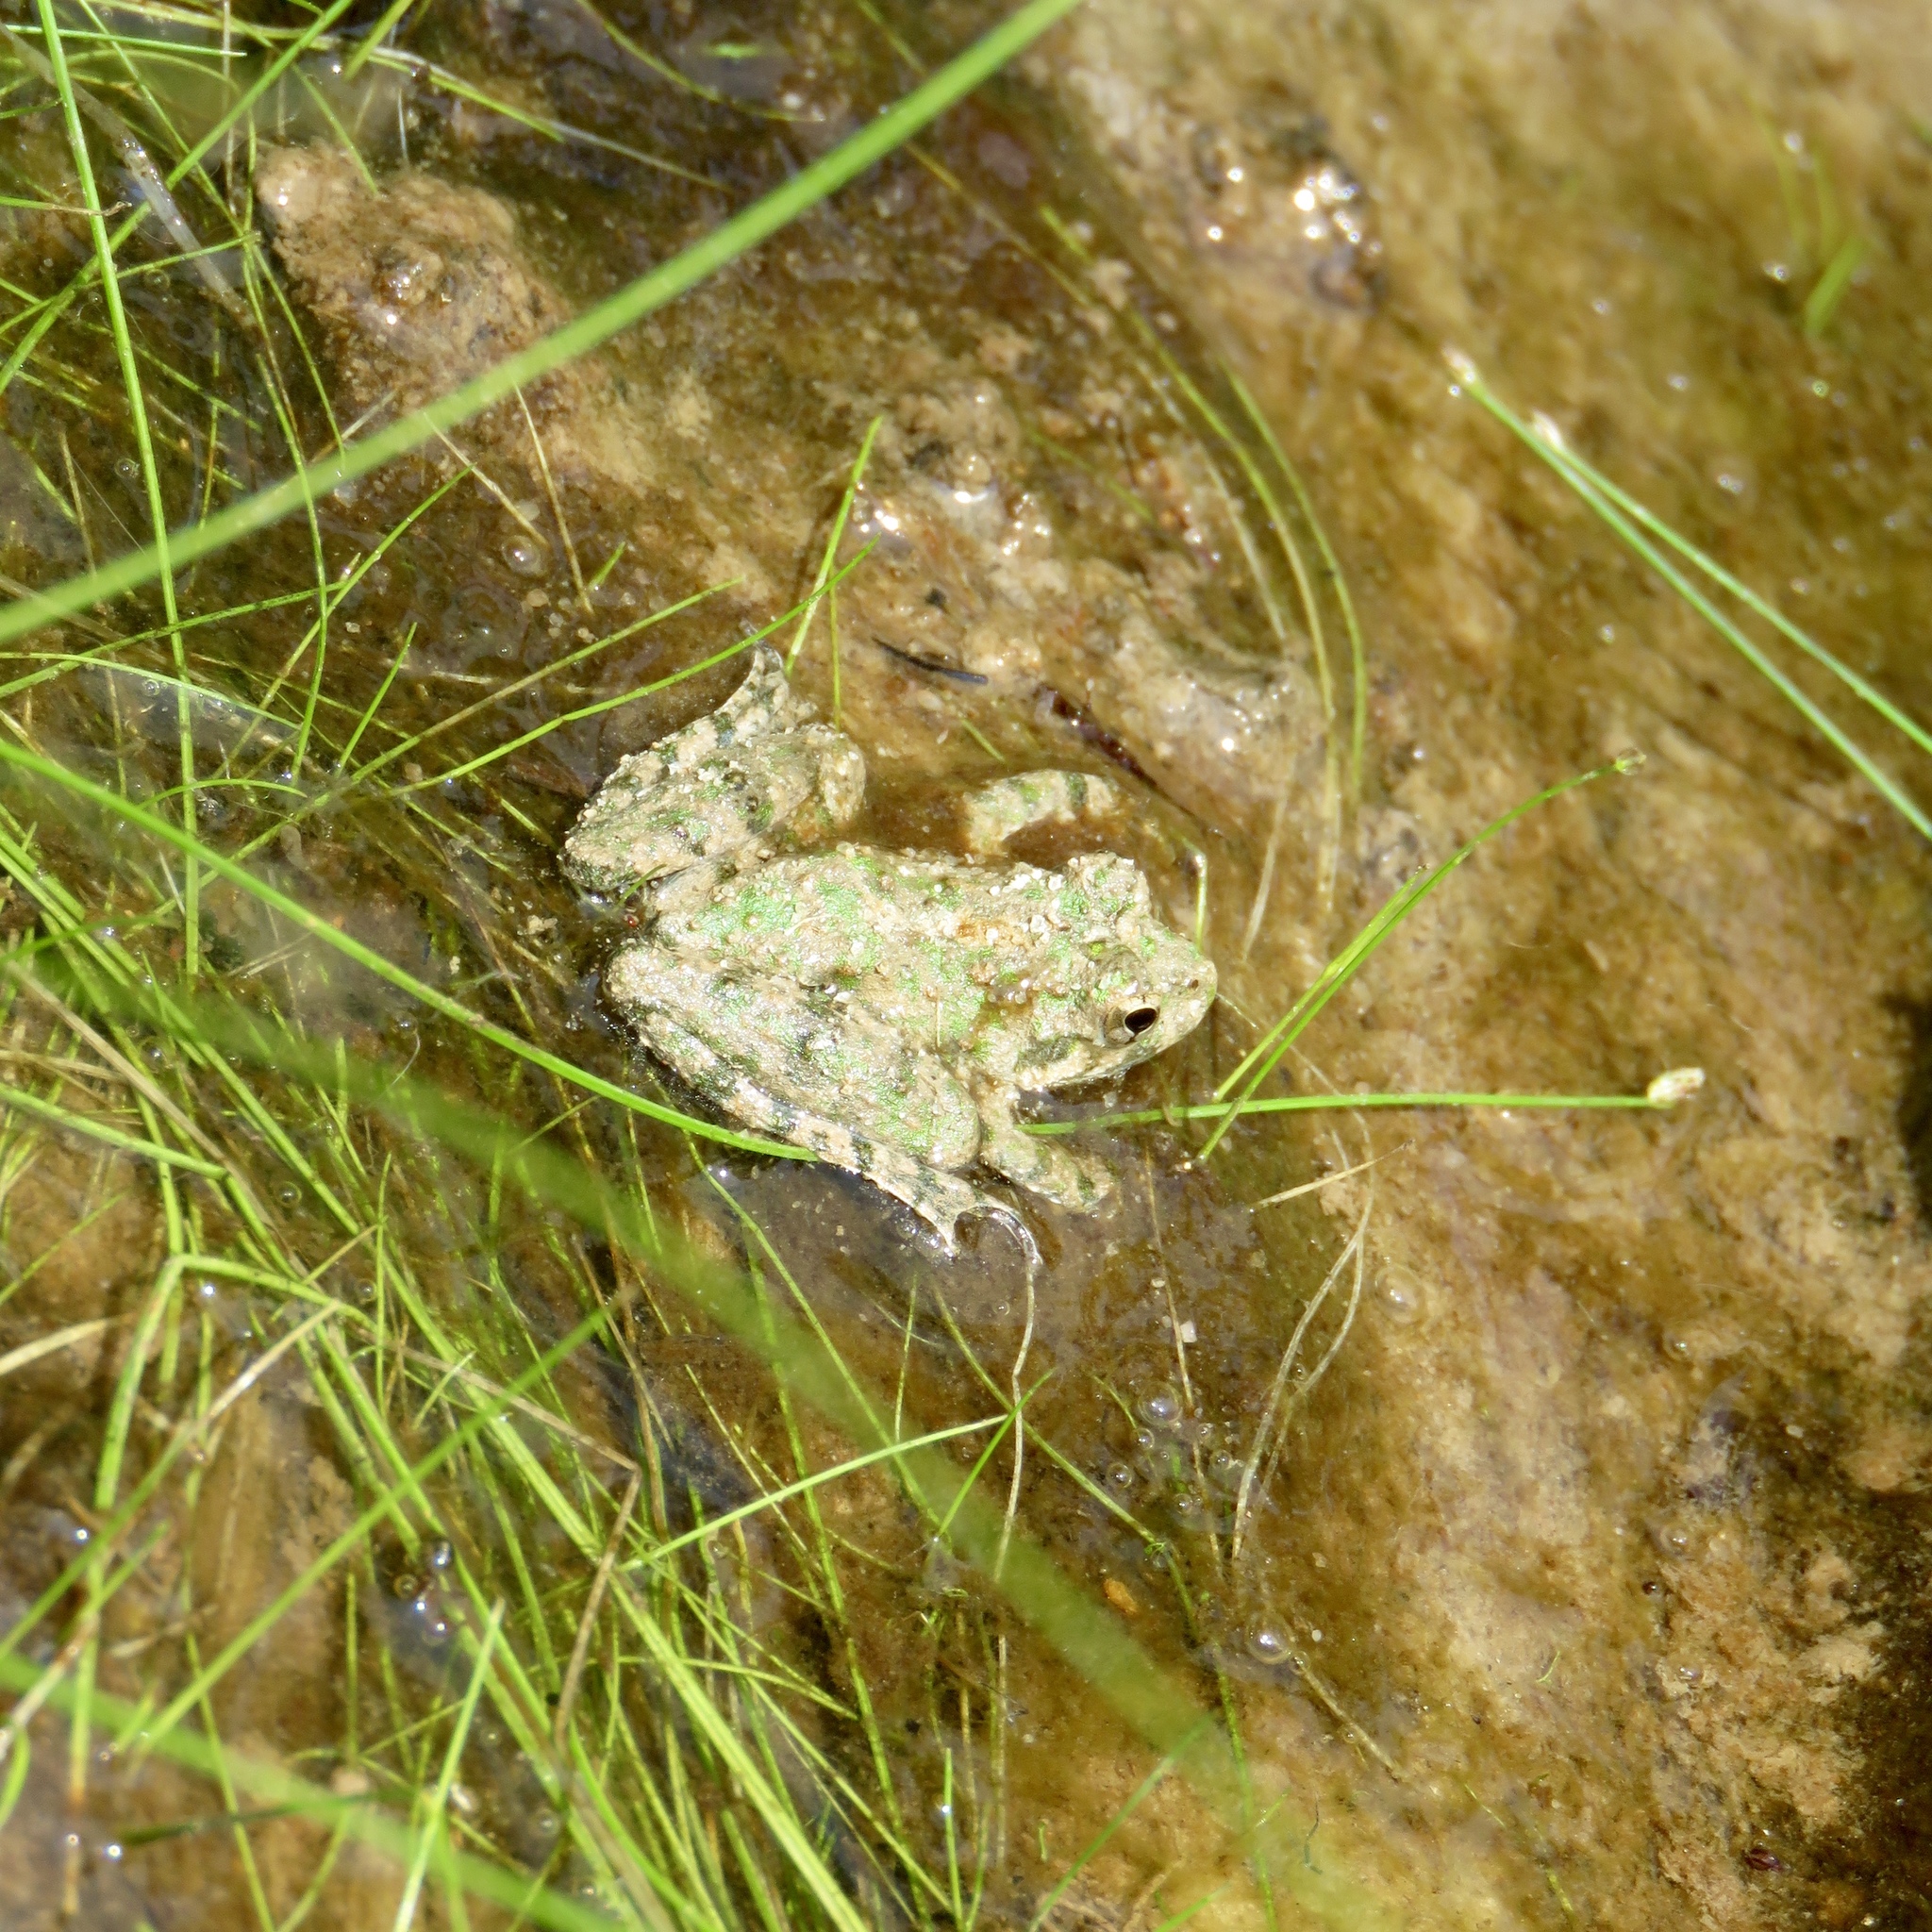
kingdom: Animalia
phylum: Chordata
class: Amphibia
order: Anura
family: Hylidae
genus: Acris
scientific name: Acris blanchardi
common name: Blanchard's cricket frog
